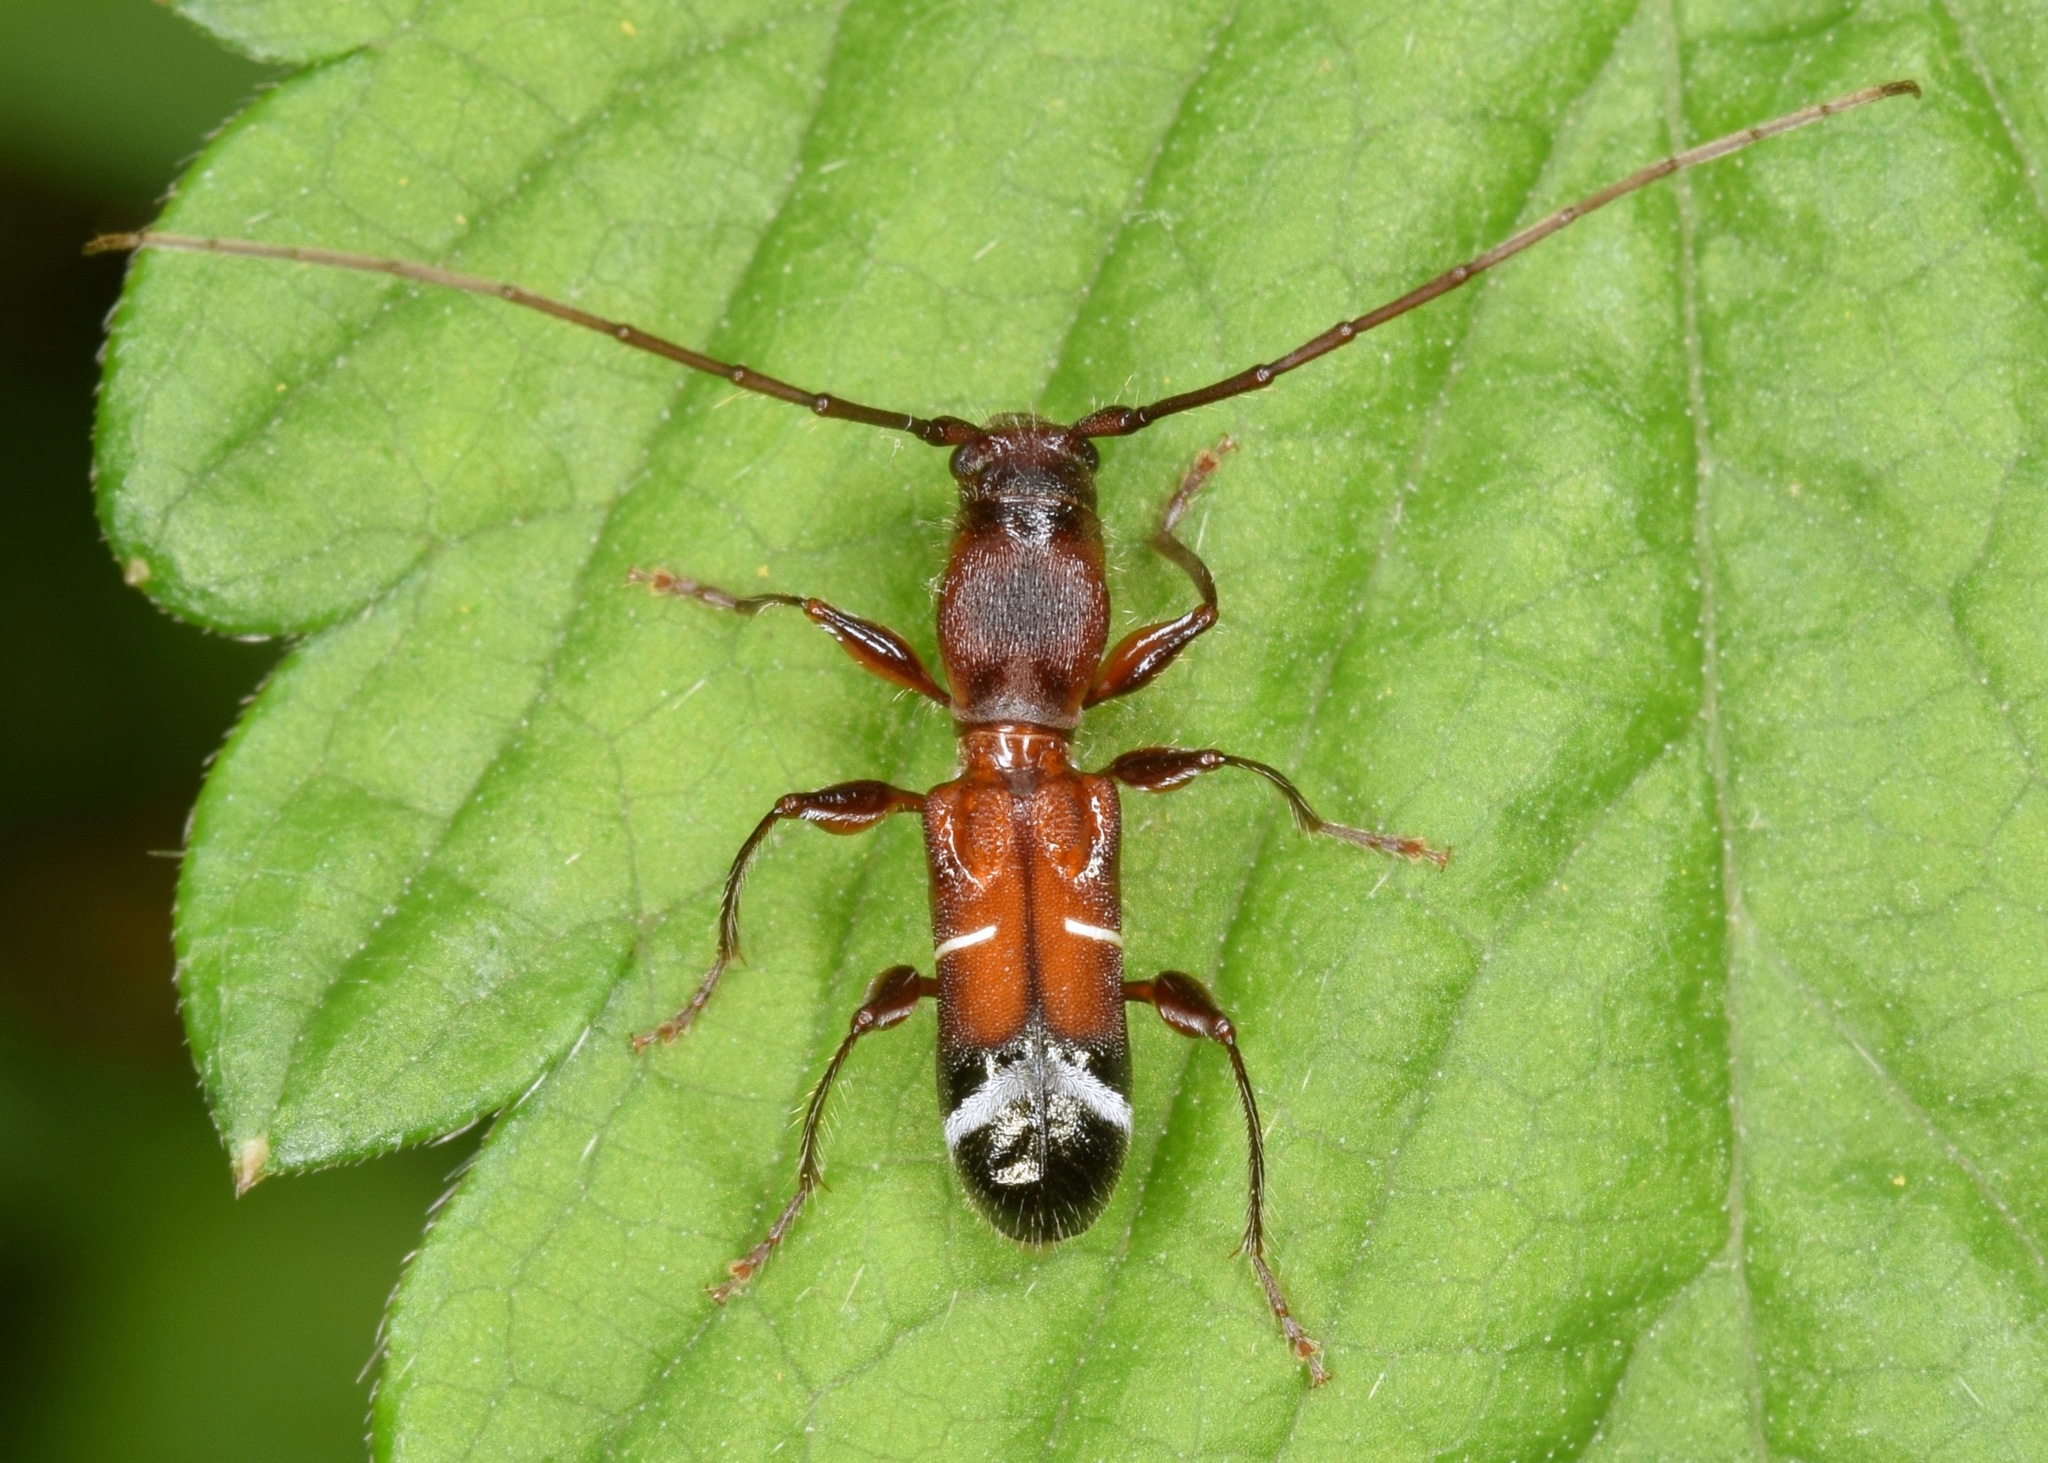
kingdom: Animalia
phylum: Arthropoda
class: Insecta
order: Coleoptera
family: Cerambycidae
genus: Euderces
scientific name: Euderces pini
